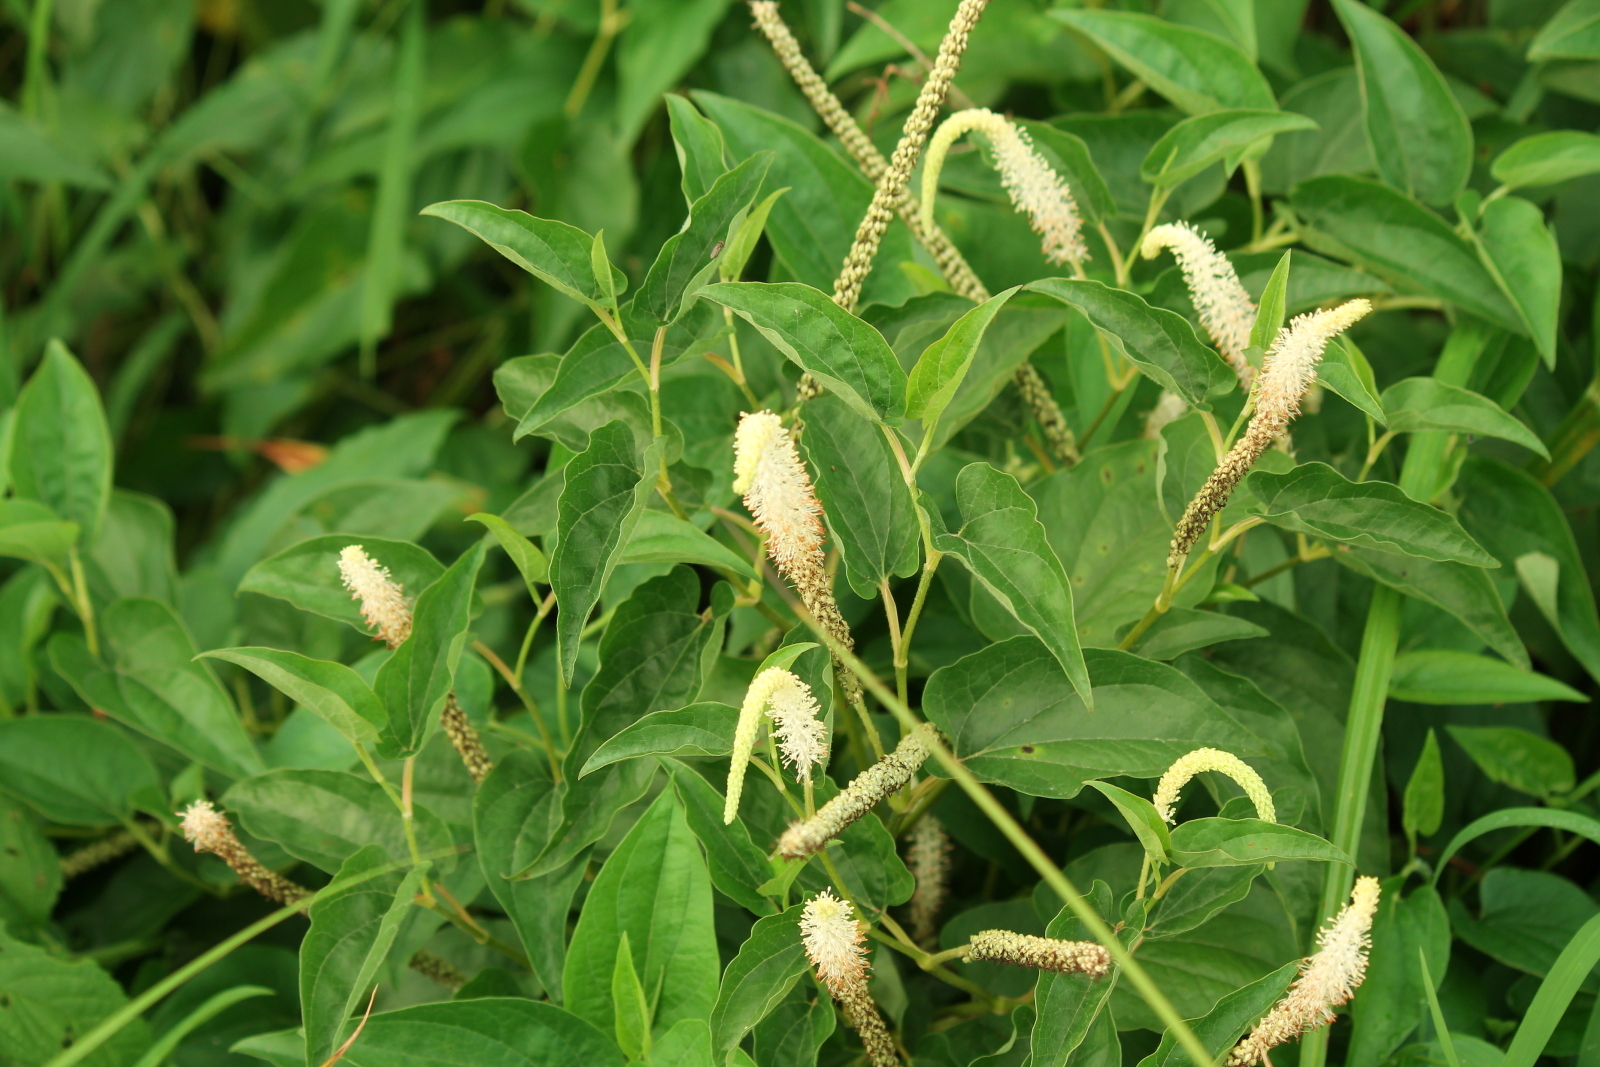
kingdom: Plantae
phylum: Tracheophyta
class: Magnoliopsida
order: Piperales
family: Saururaceae
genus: Saururus
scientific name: Saururus cernuus
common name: Lizard's-tail
